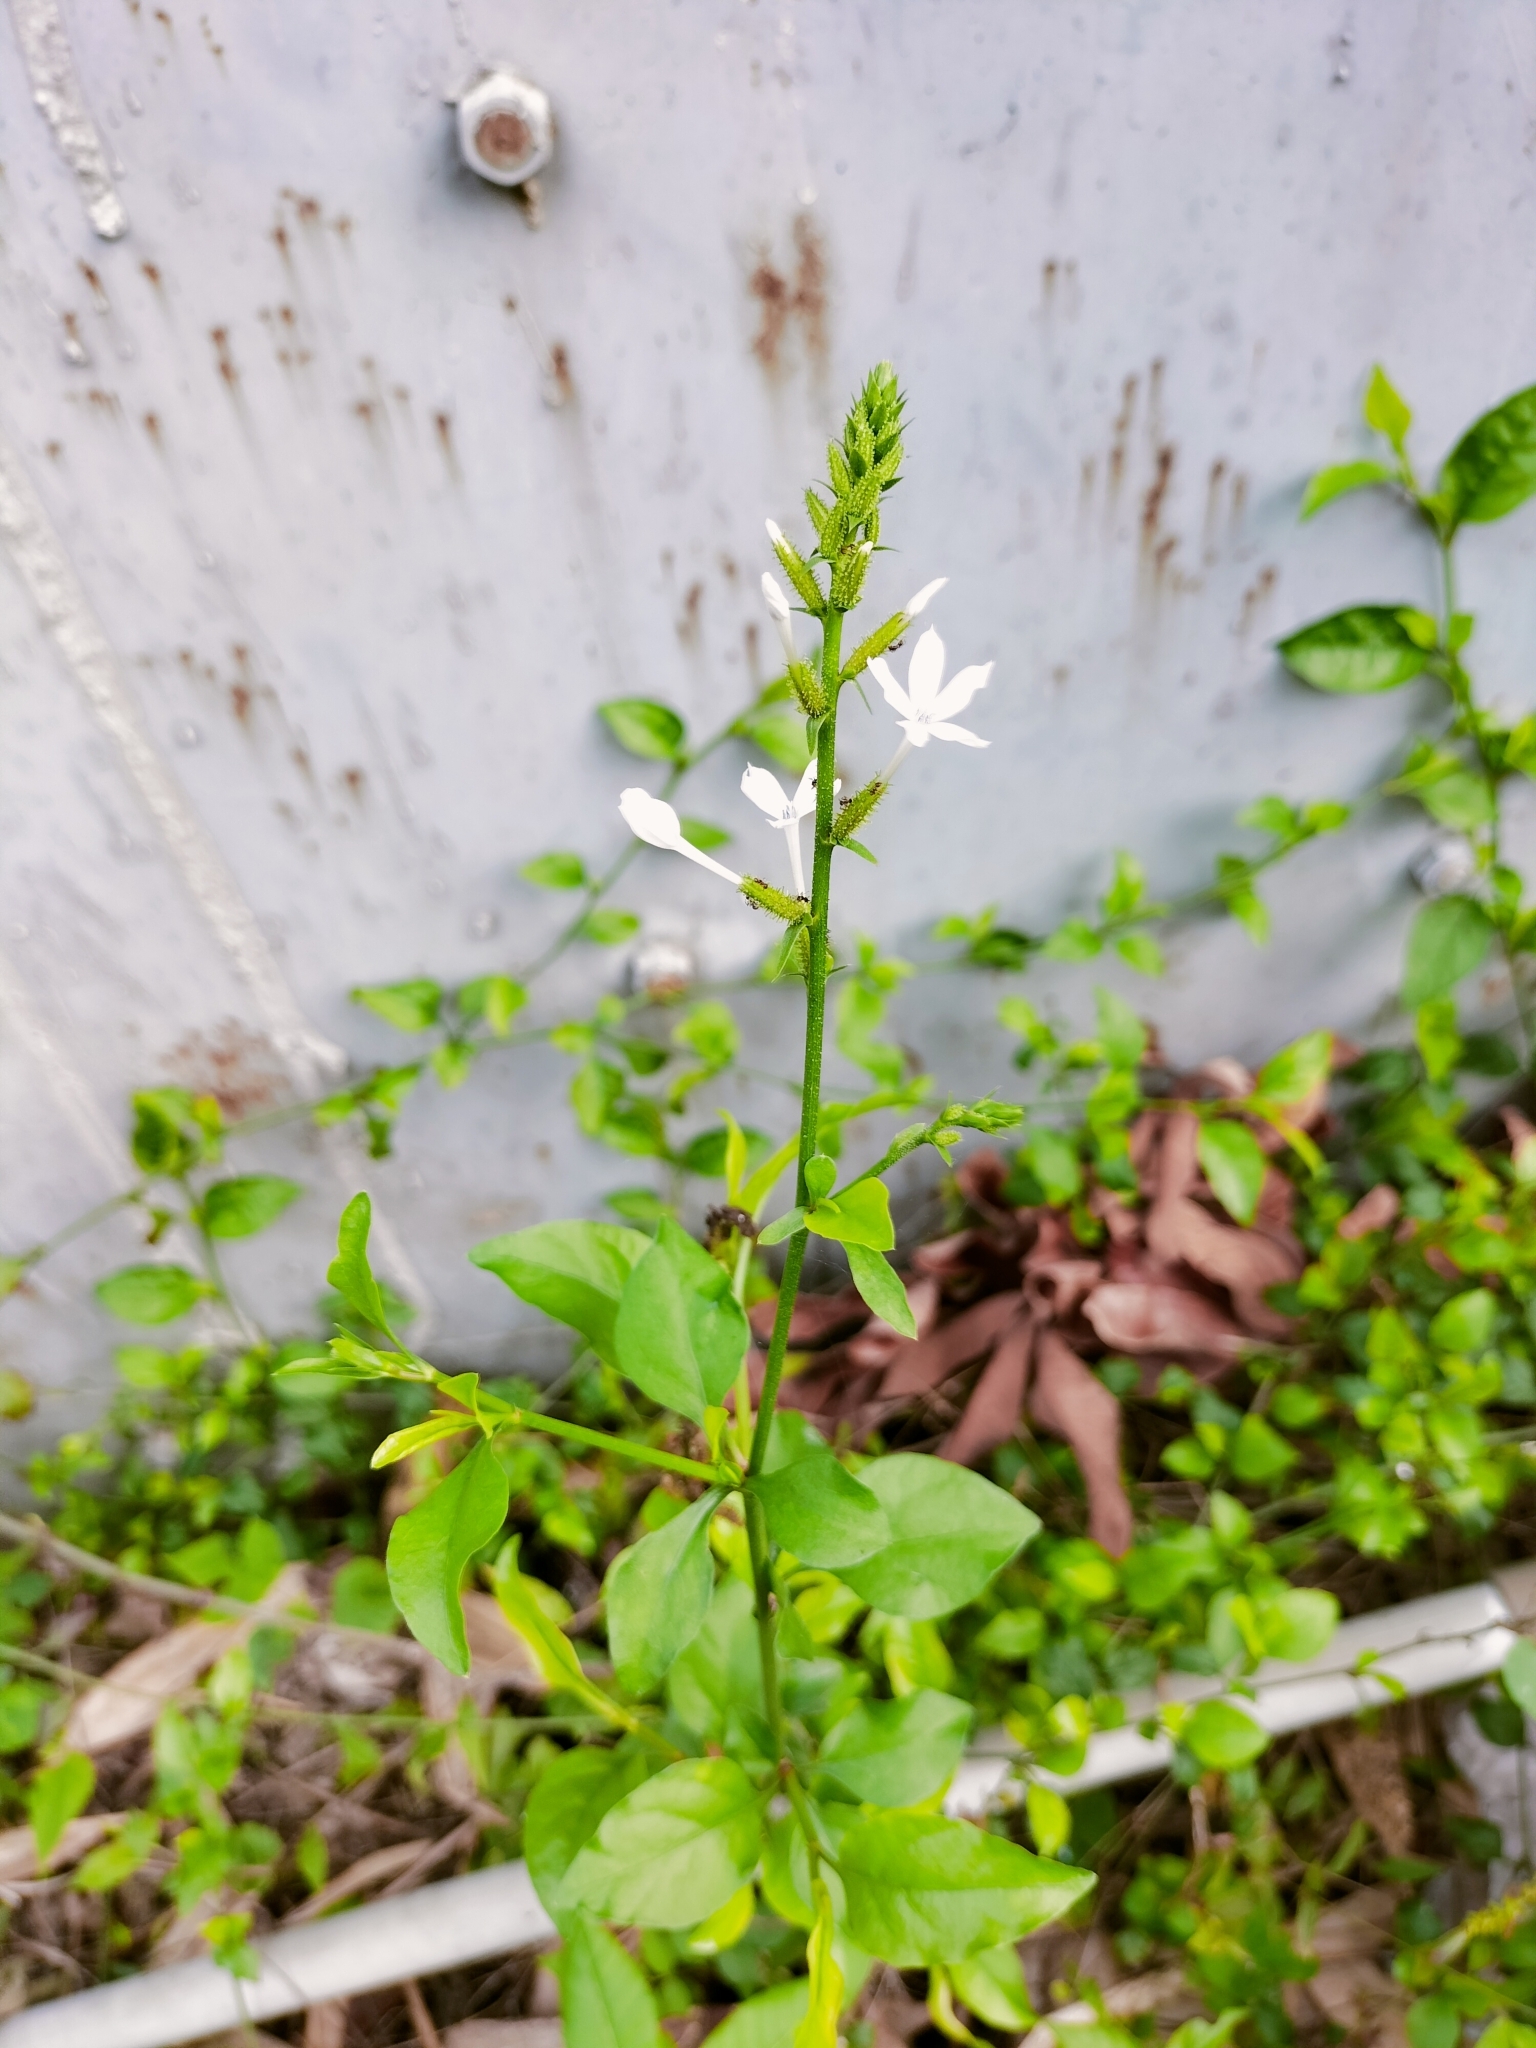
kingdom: Plantae
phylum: Tracheophyta
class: Magnoliopsida
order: Caryophyllales
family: Plumbaginaceae
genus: Plumbago
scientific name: Plumbago zeylanica
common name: Doctorbush
